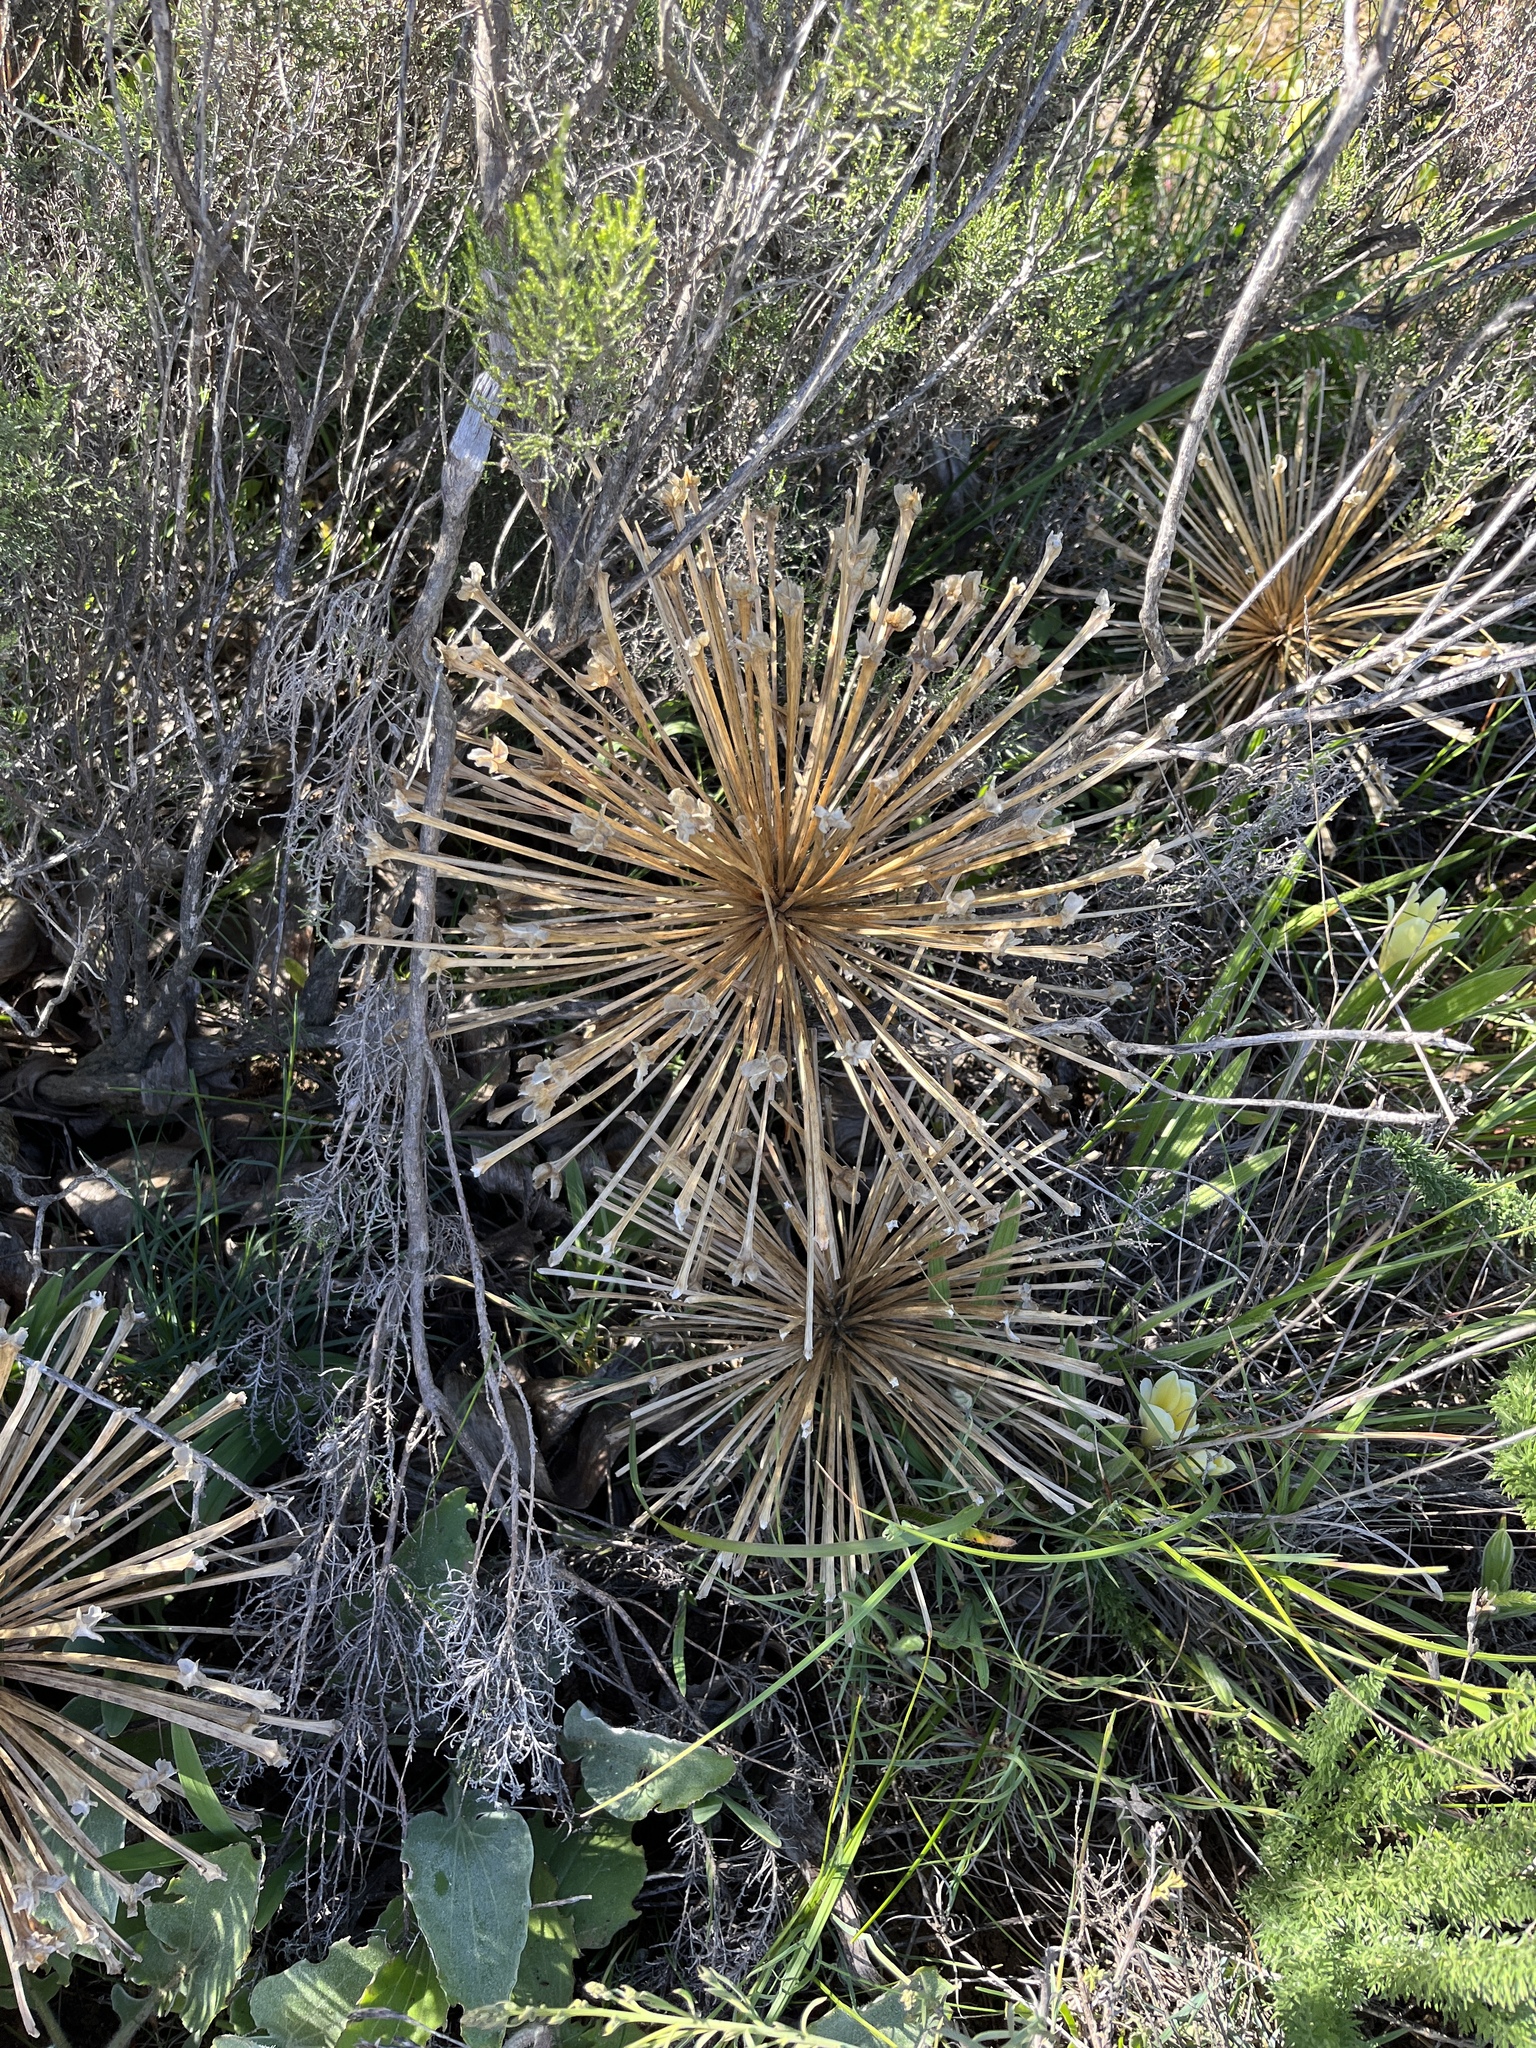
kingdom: Plantae
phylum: Tracheophyta
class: Liliopsida
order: Asparagales
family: Amaryllidaceae
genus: Crossyne
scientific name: Crossyne flava
